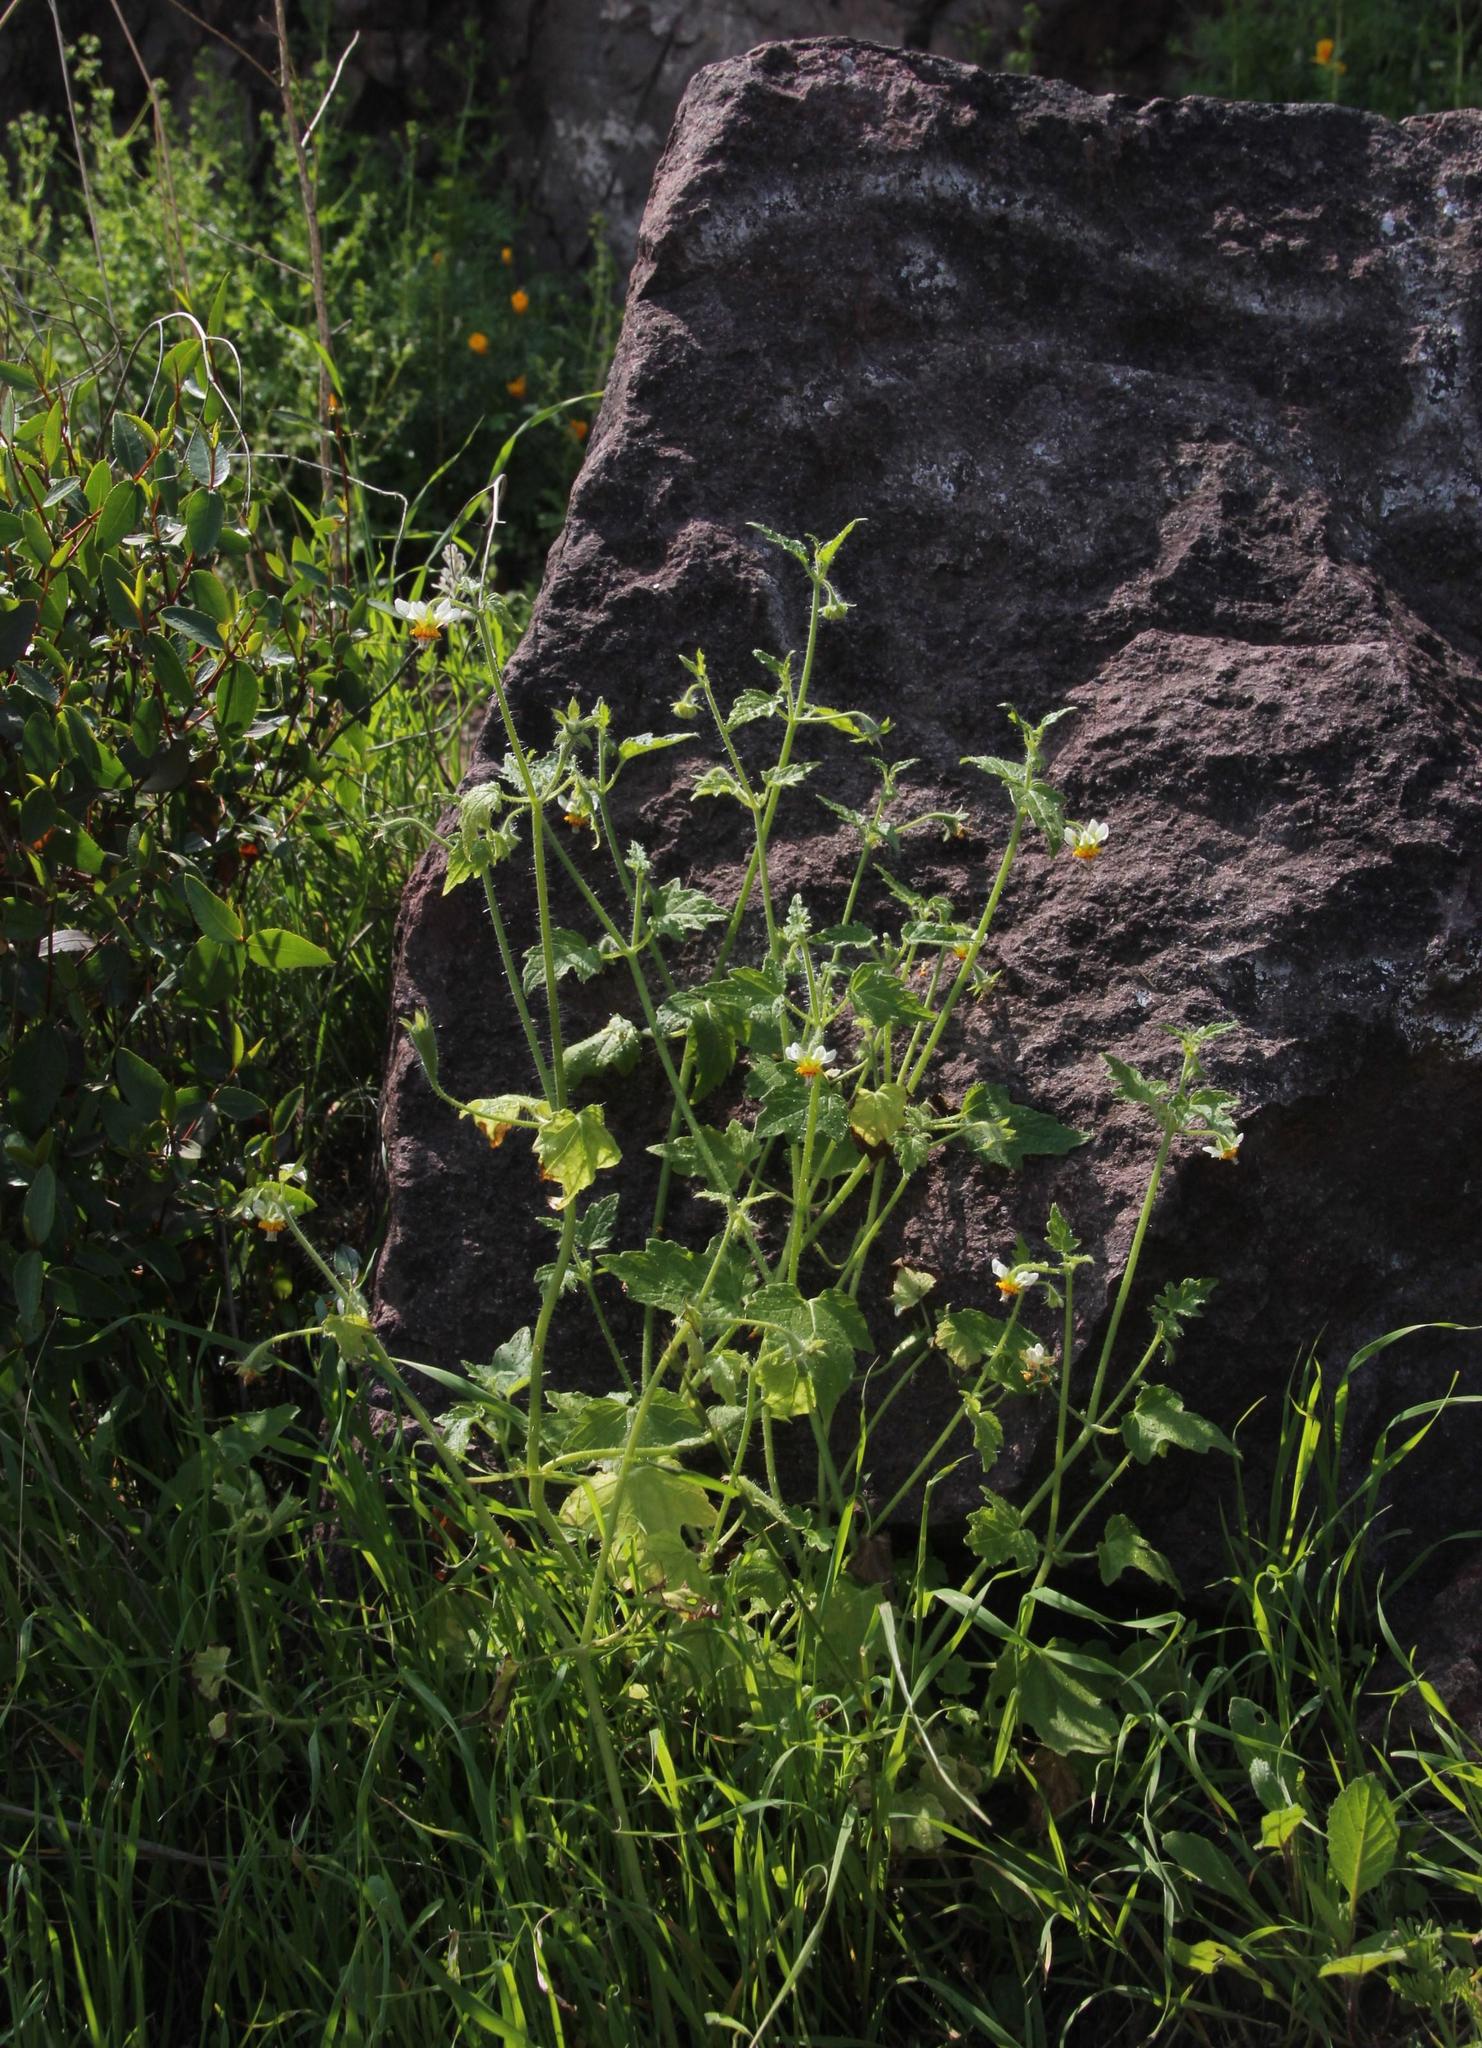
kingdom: Plantae
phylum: Tracheophyta
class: Magnoliopsida
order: Cornales
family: Loasaceae
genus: Loasa
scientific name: Loasa triloba
